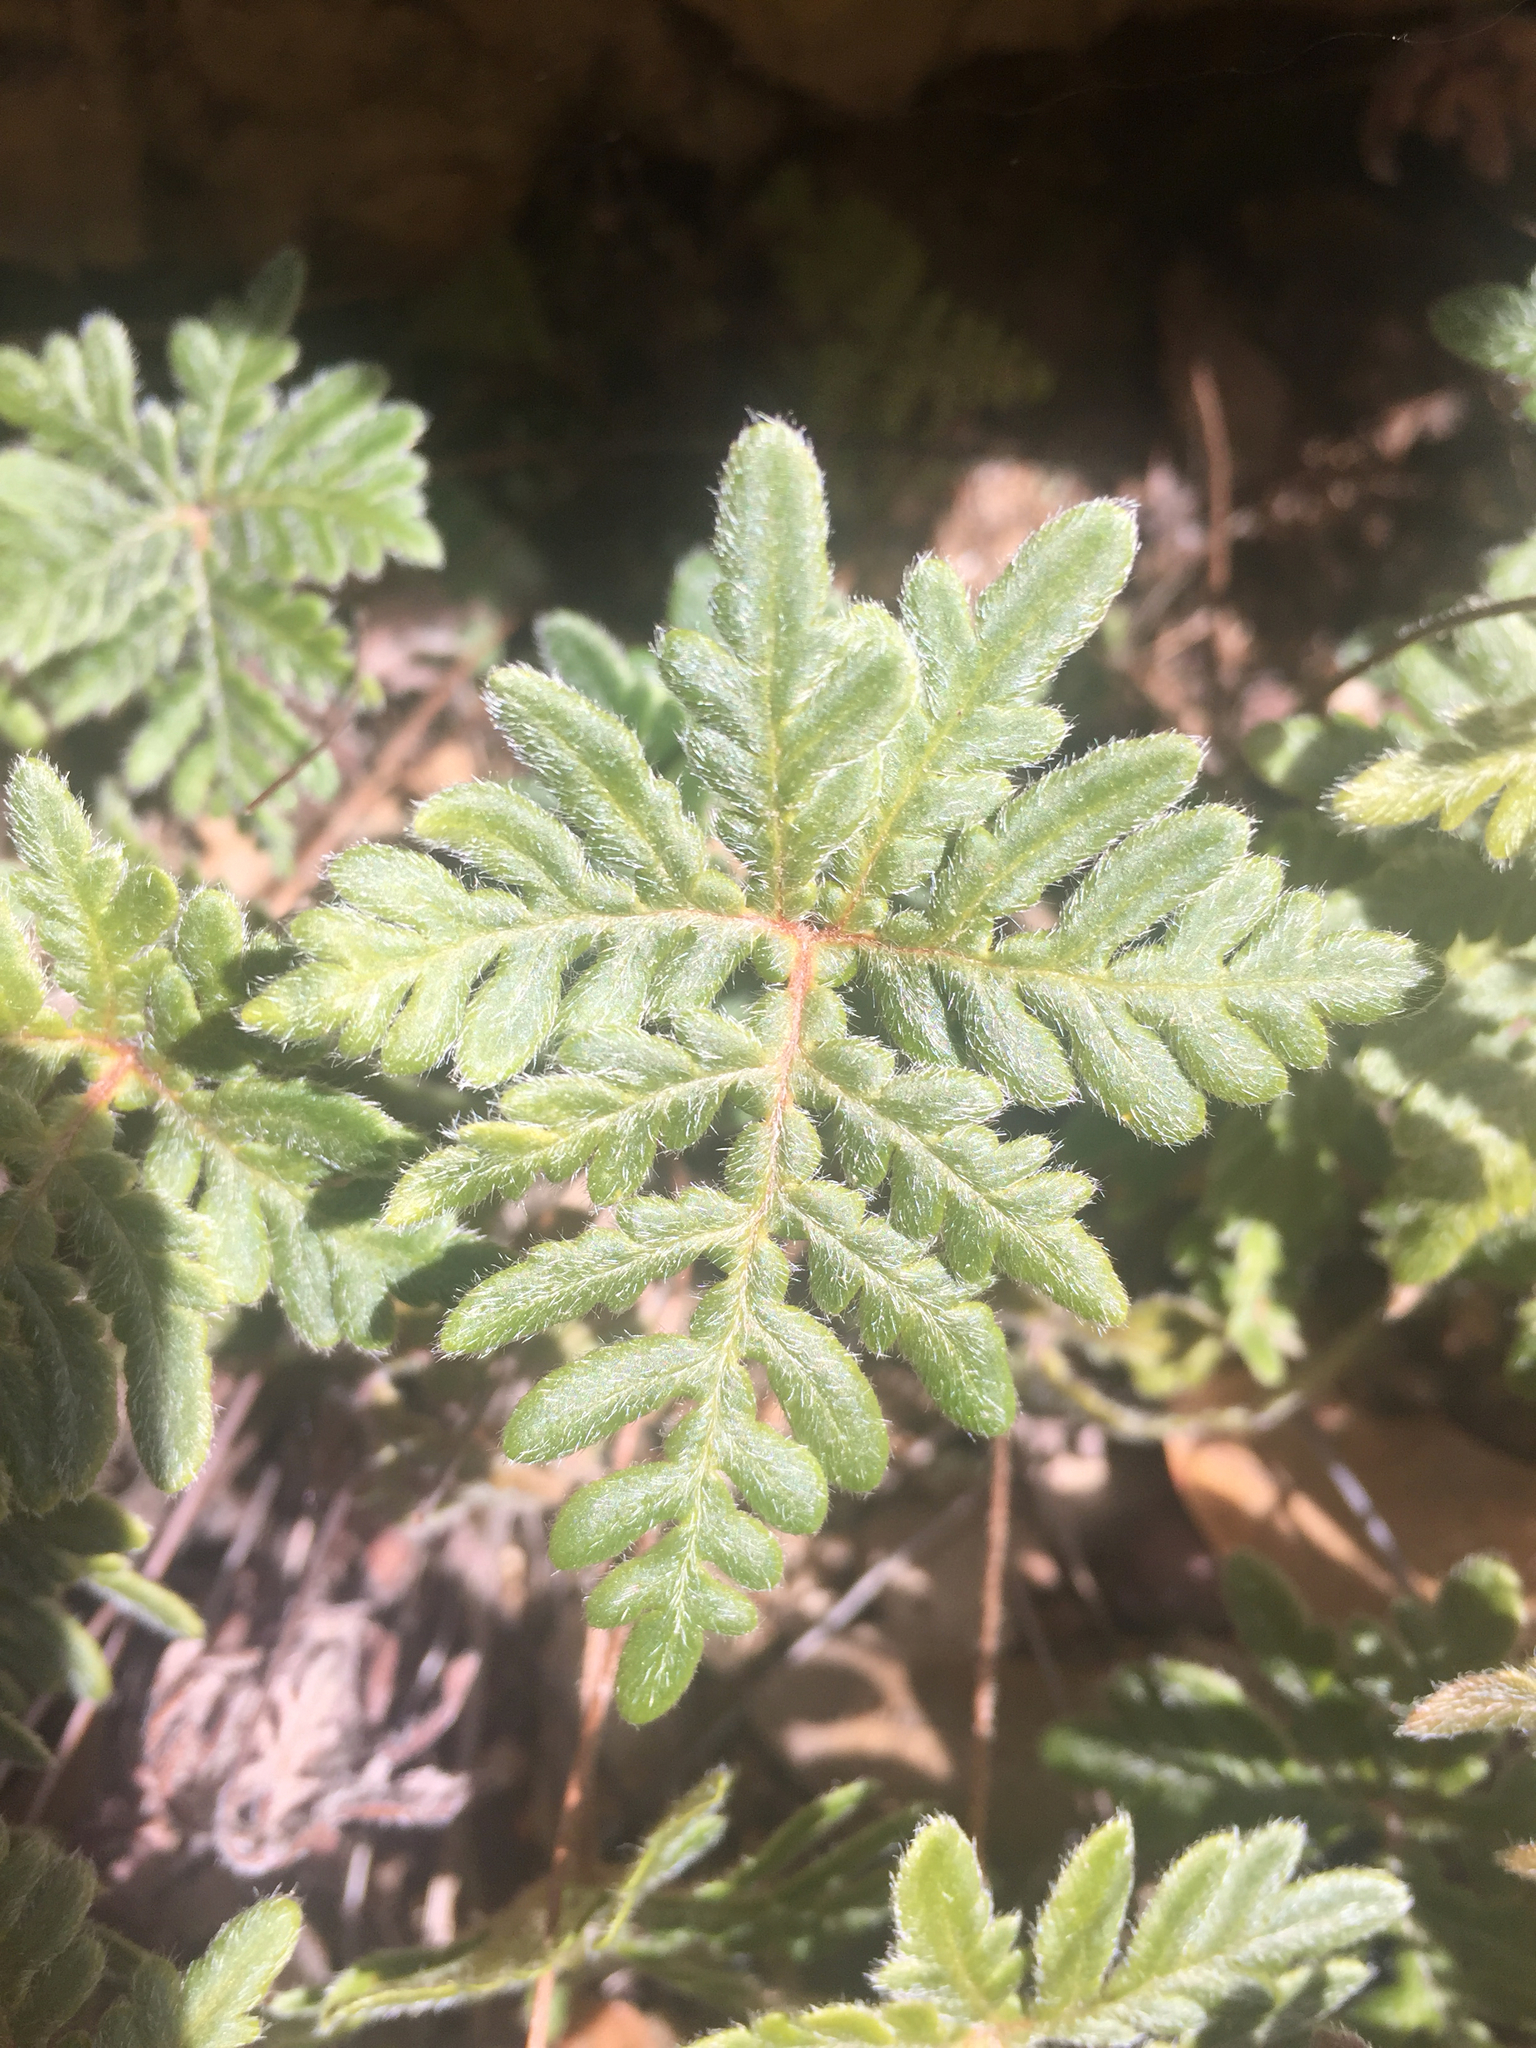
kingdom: Plantae
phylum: Tracheophyta
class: Polypodiopsida
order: Polypodiales
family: Pteridaceae
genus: Bommeria
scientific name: Bommeria hispida
